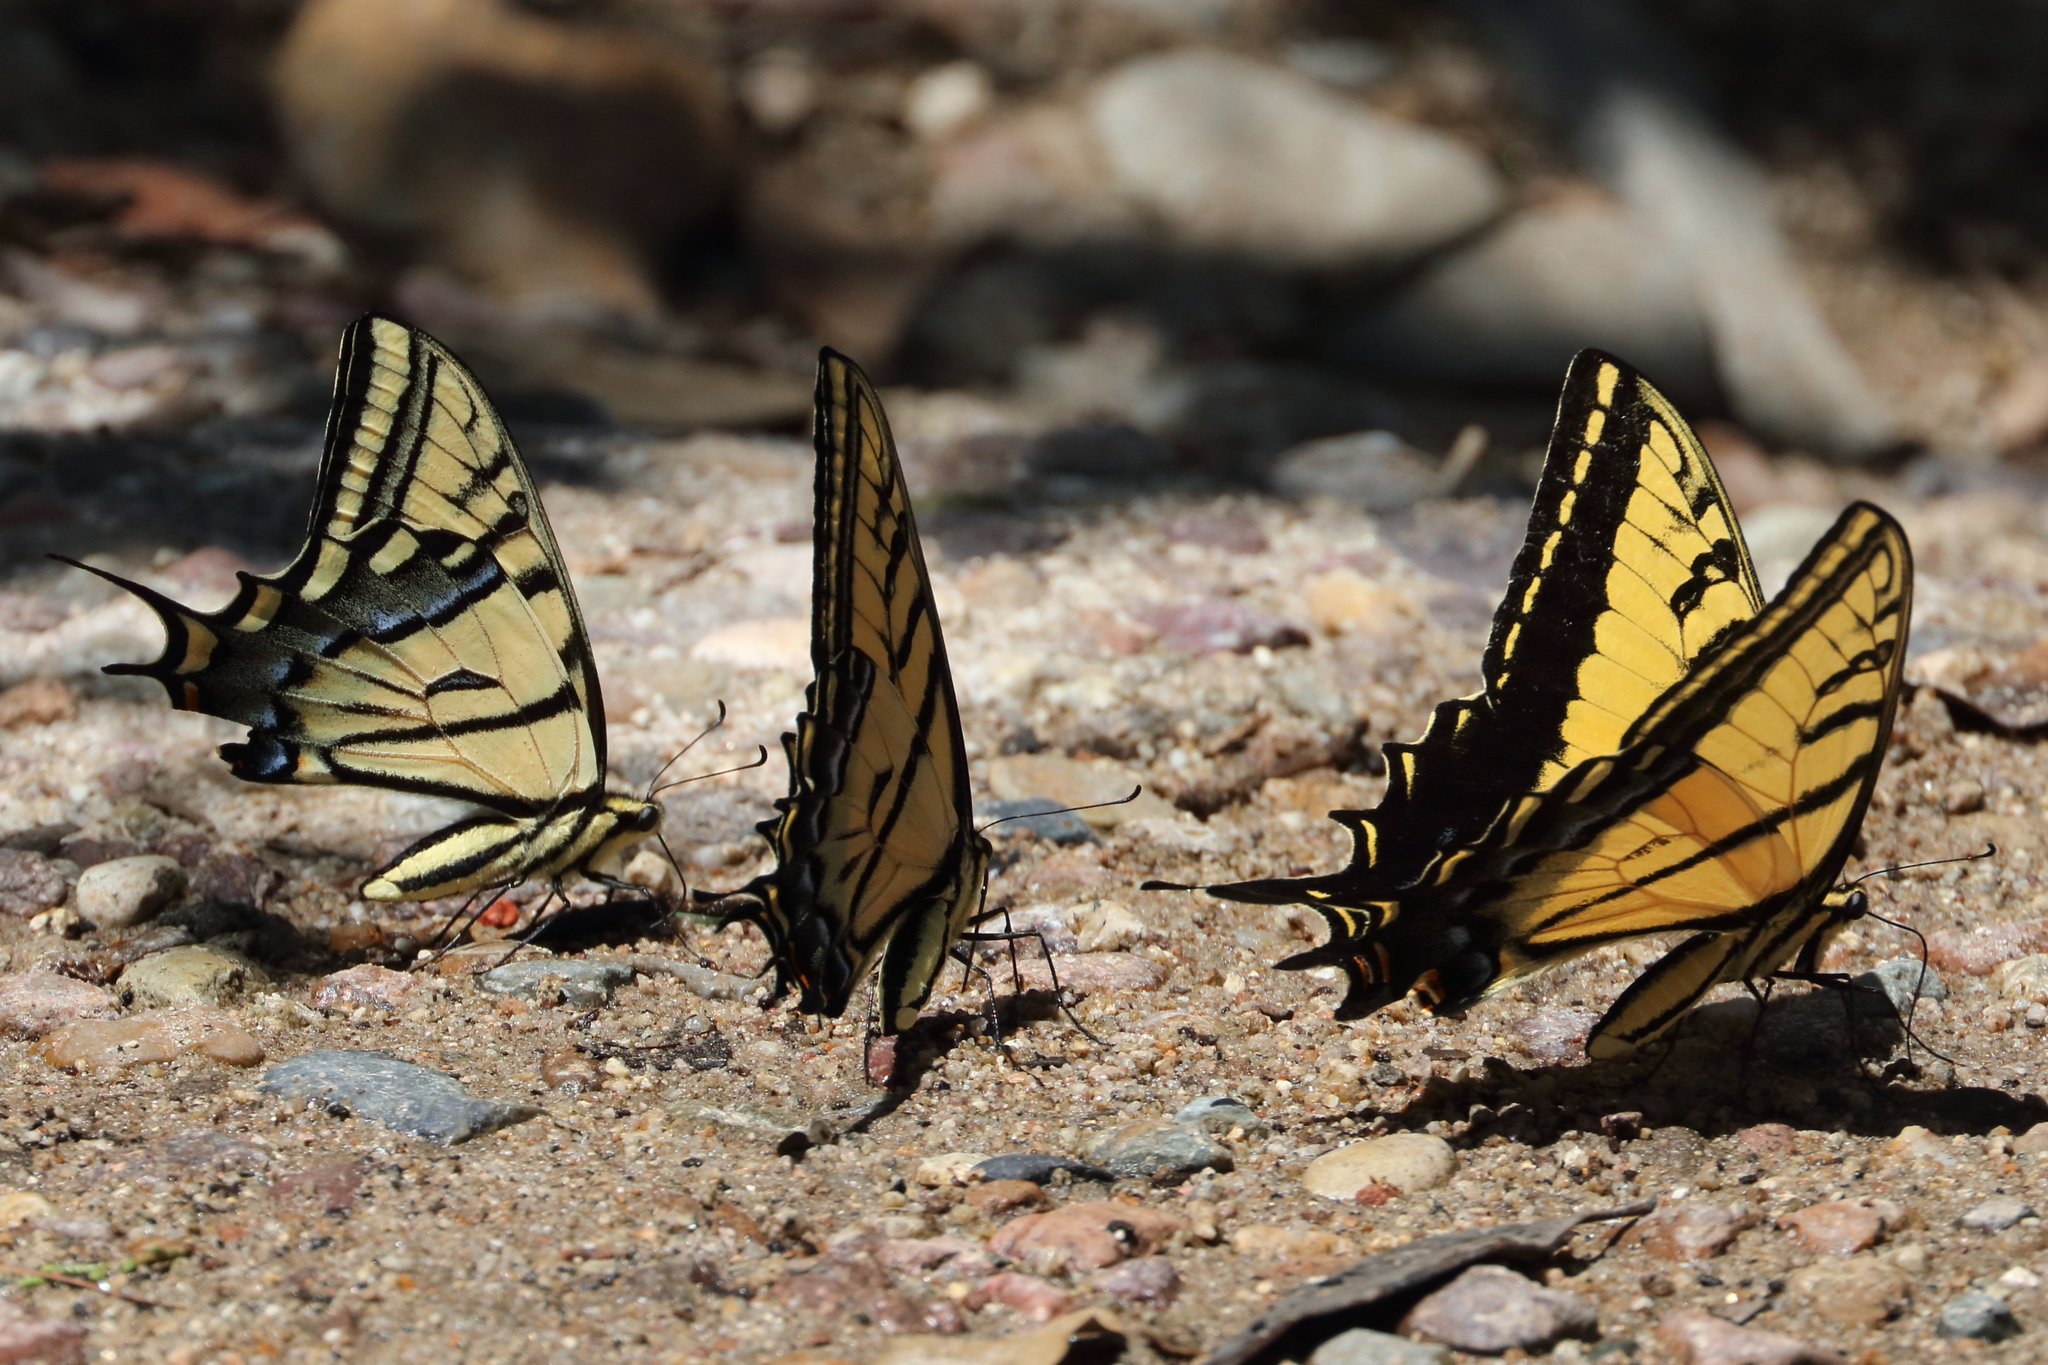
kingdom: Animalia
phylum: Arthropoda
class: Insecta
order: Lepidoptera
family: Papilionidae
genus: Papilio
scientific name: Papilio multicaudata
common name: Two-tailed tiger swallowtail
